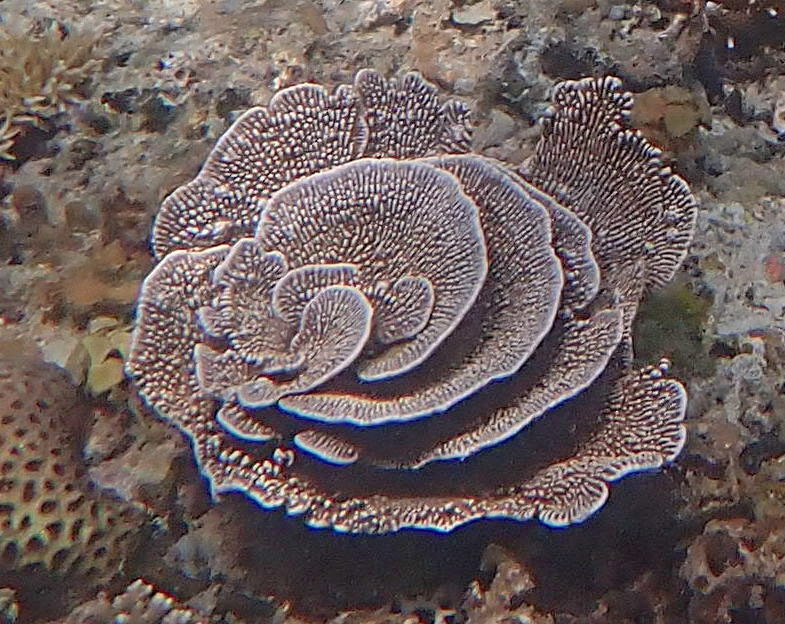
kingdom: Animalia
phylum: Porifera
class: Demospongiae
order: Dictyoceratida
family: Thorectidae
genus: Phyllospongia
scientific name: Phyllospongia foliascens
